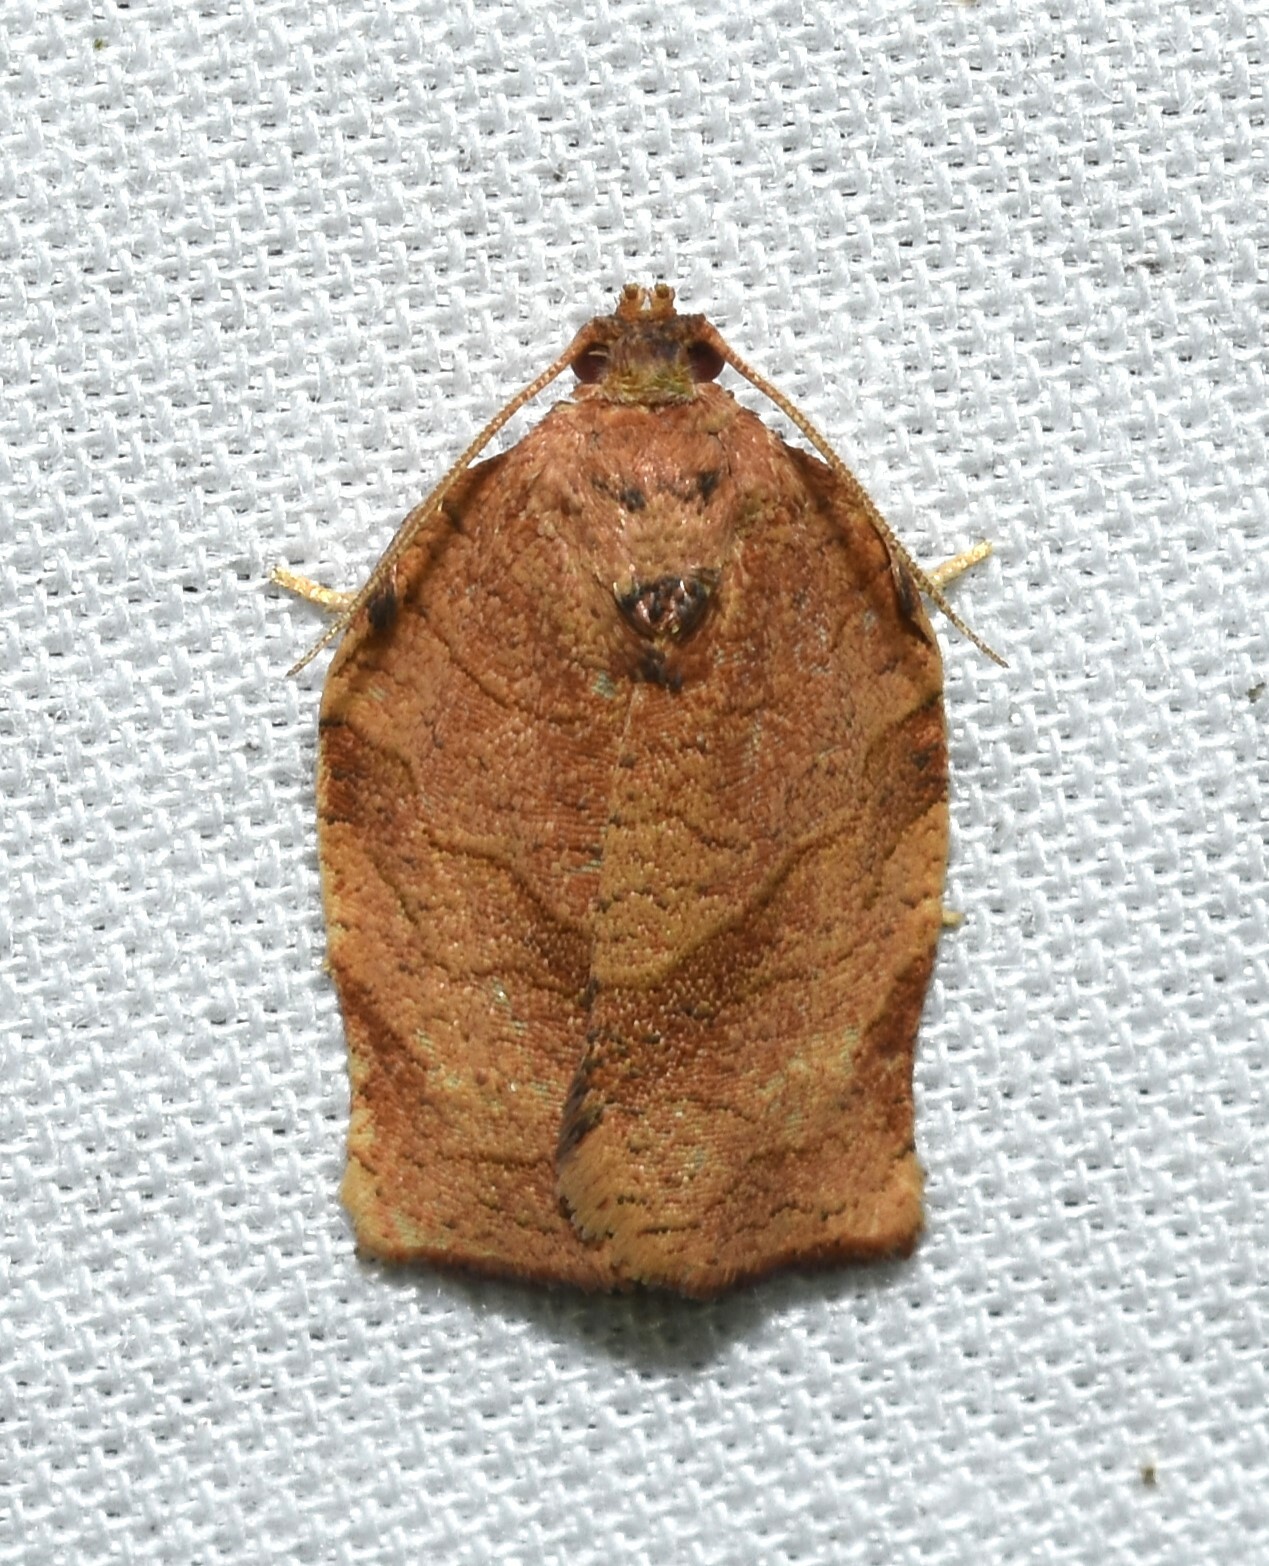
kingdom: Animalia
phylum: Arthropoda
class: Insecta
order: Lepidoptera
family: Tortricidae
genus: Choristoneura
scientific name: Choristoneura rosaceana
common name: Oblique-banded leafroller moth
